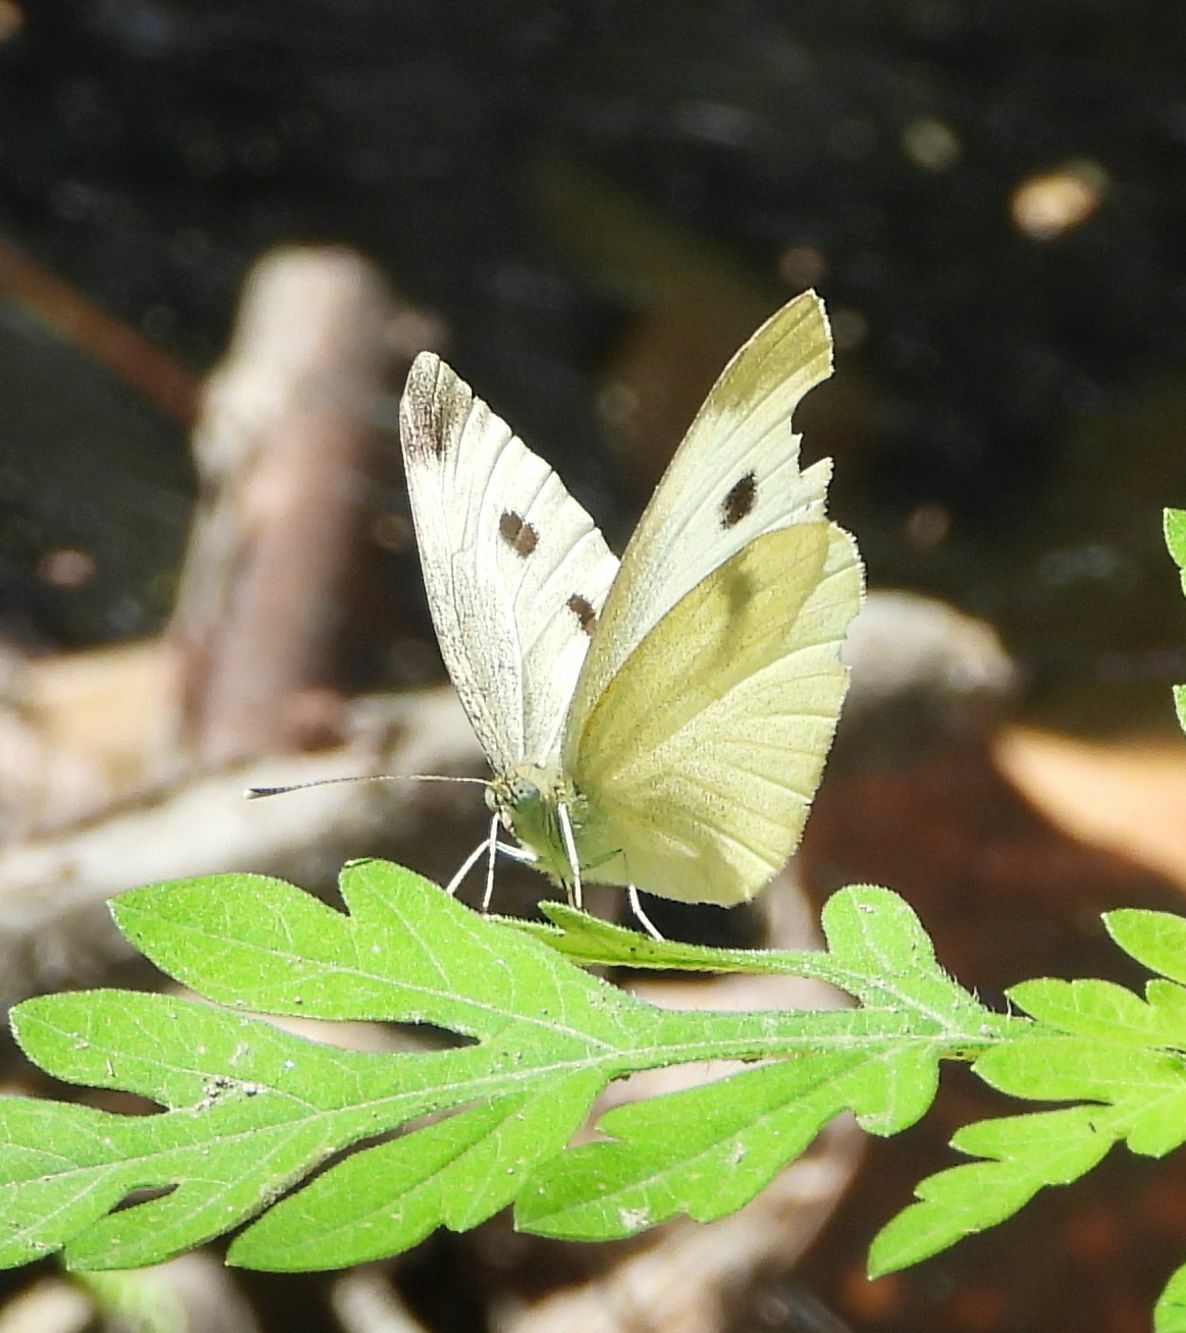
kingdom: Animalia
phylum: Arthropoda
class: Insecta
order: Lepidoptera
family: Pieridae
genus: Pieris
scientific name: Pieris rapae
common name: Small white
